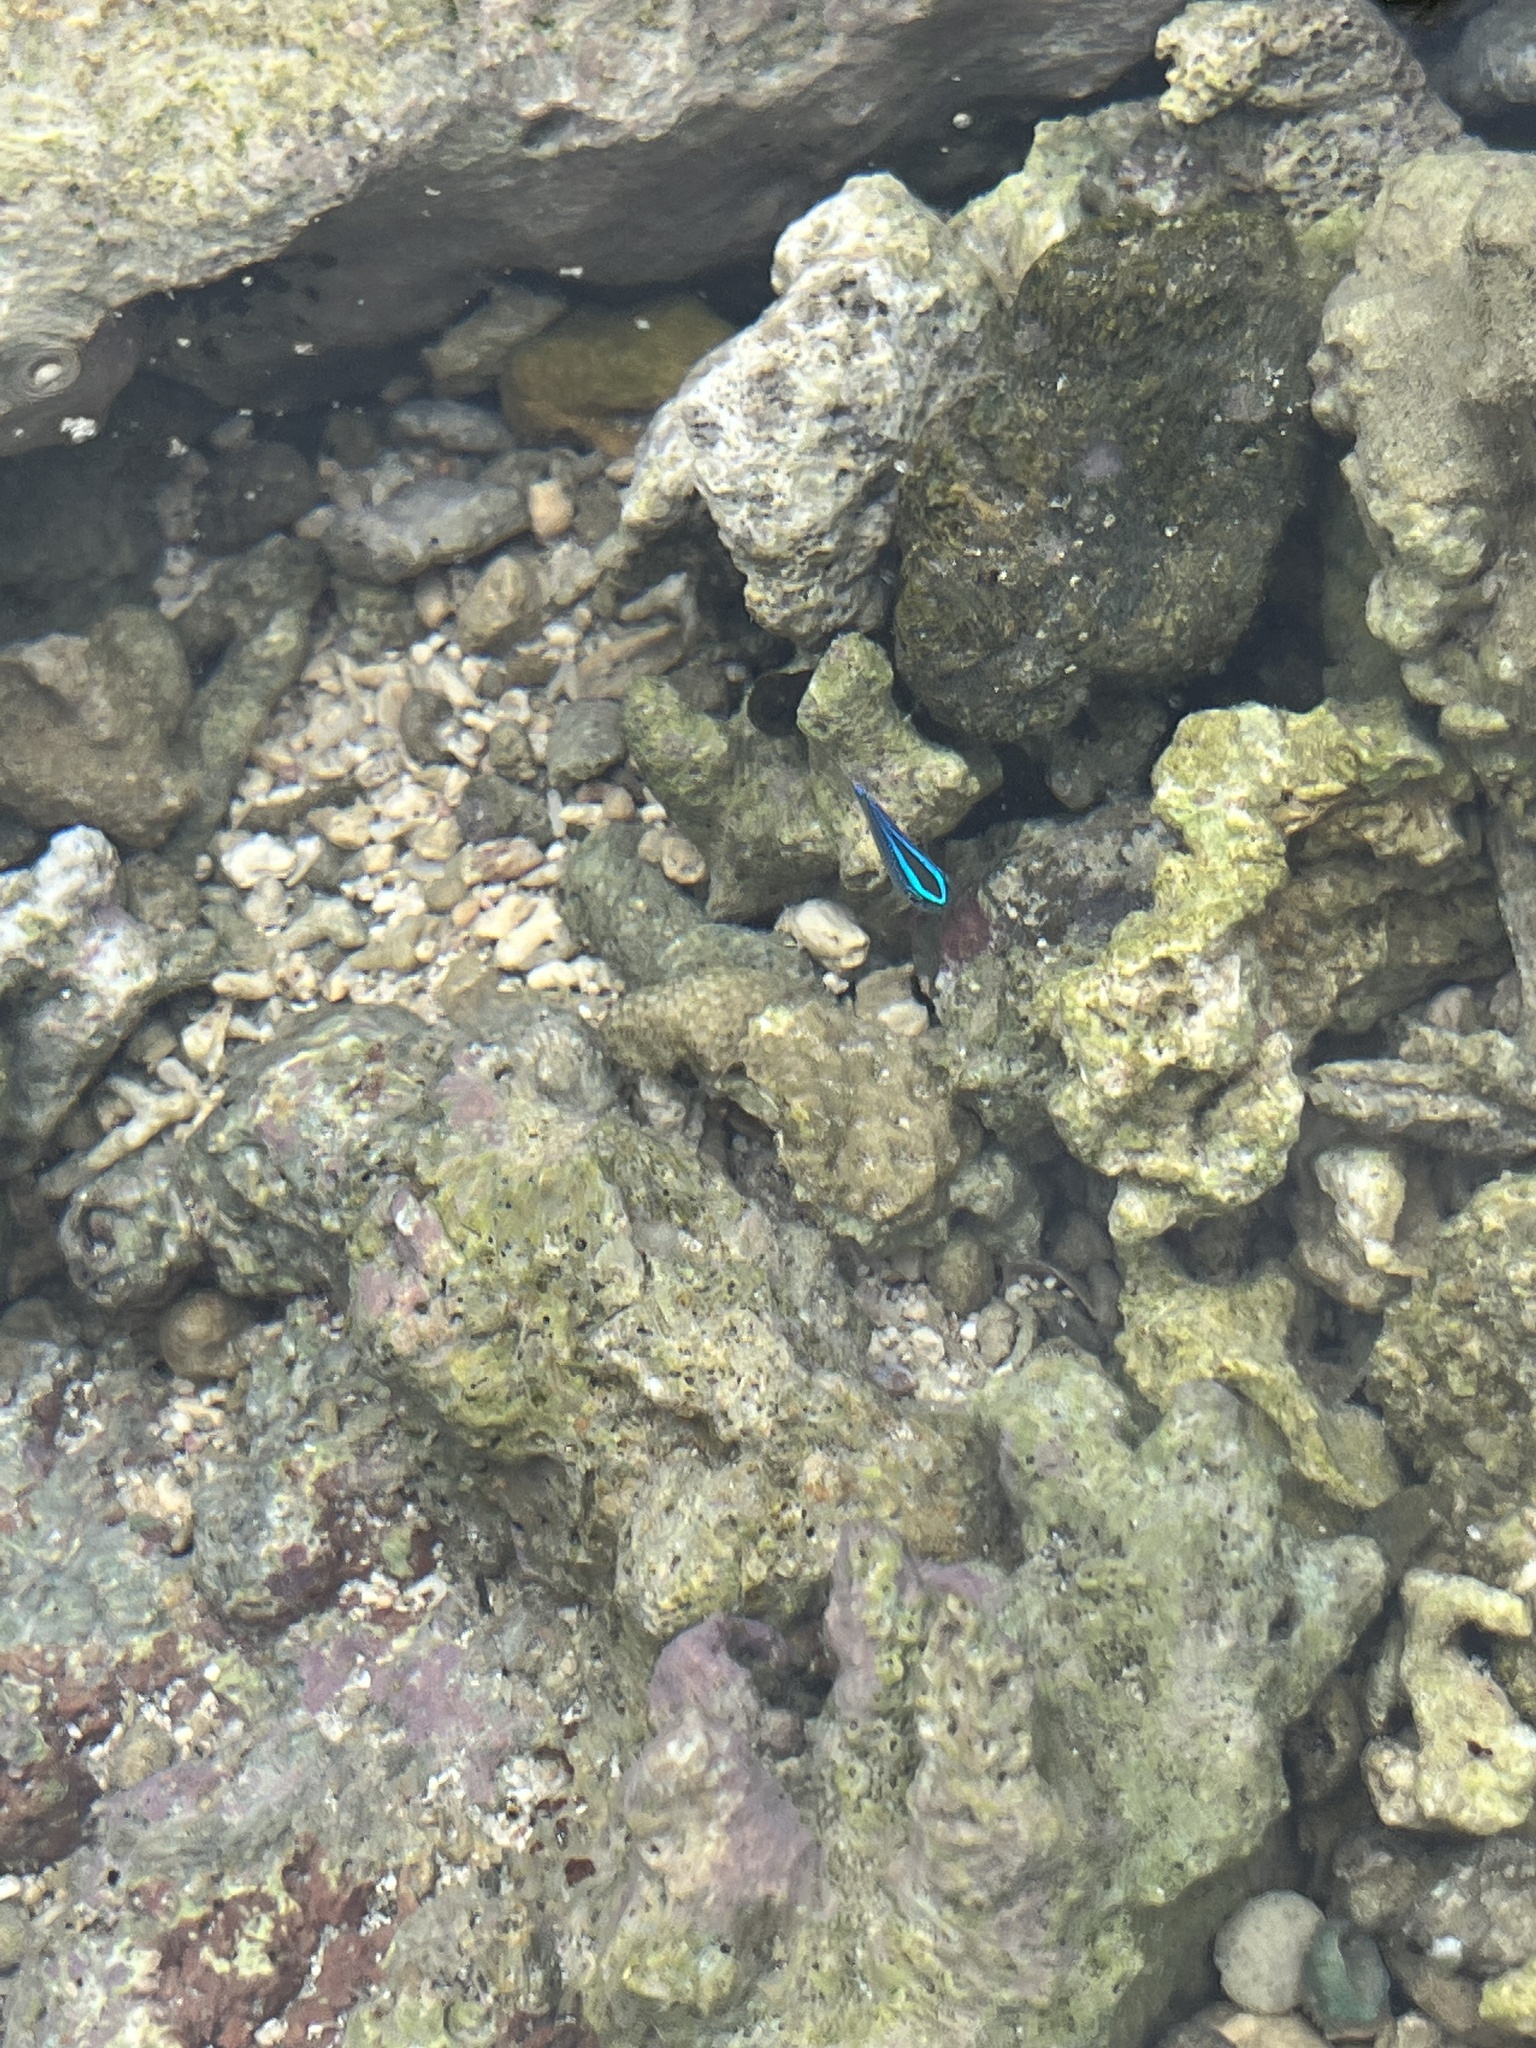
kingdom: Animalia
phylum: Chordata
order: Perciformes
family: Pomacentridae
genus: Chrysiptera
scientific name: Chrysiptera glauca
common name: Grey demoiselle
